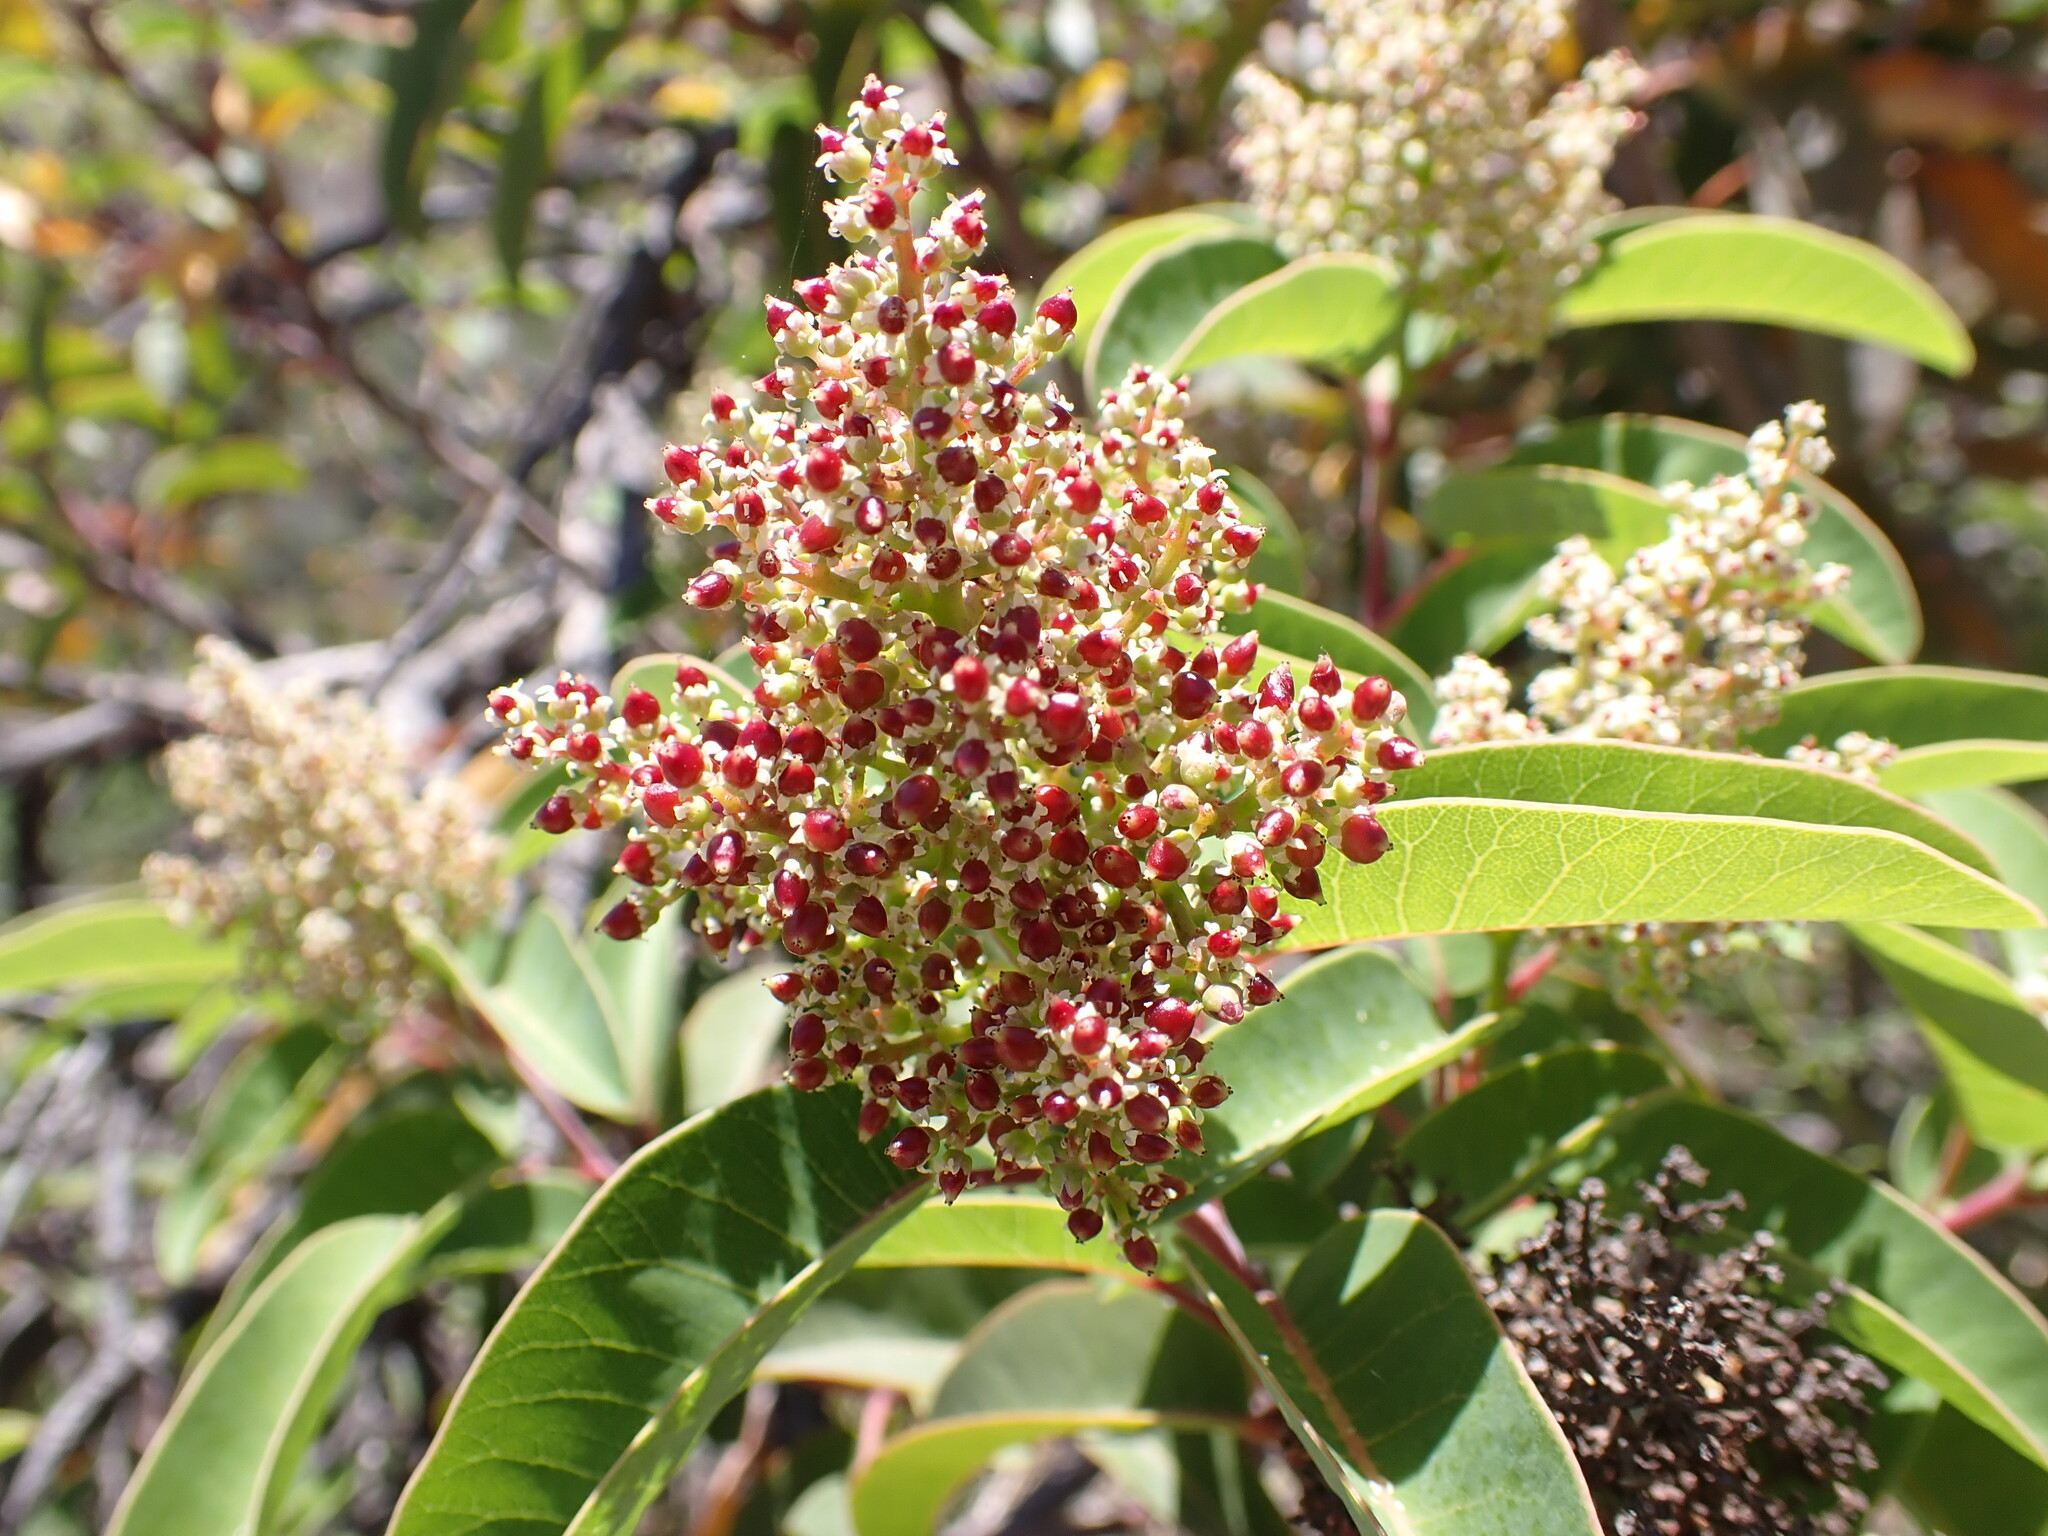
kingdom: Plantae
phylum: Tracheophyta
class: Magnoliopsida
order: Sapindales
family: Anacardiaceae
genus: Malosma
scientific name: Malosma laurina
